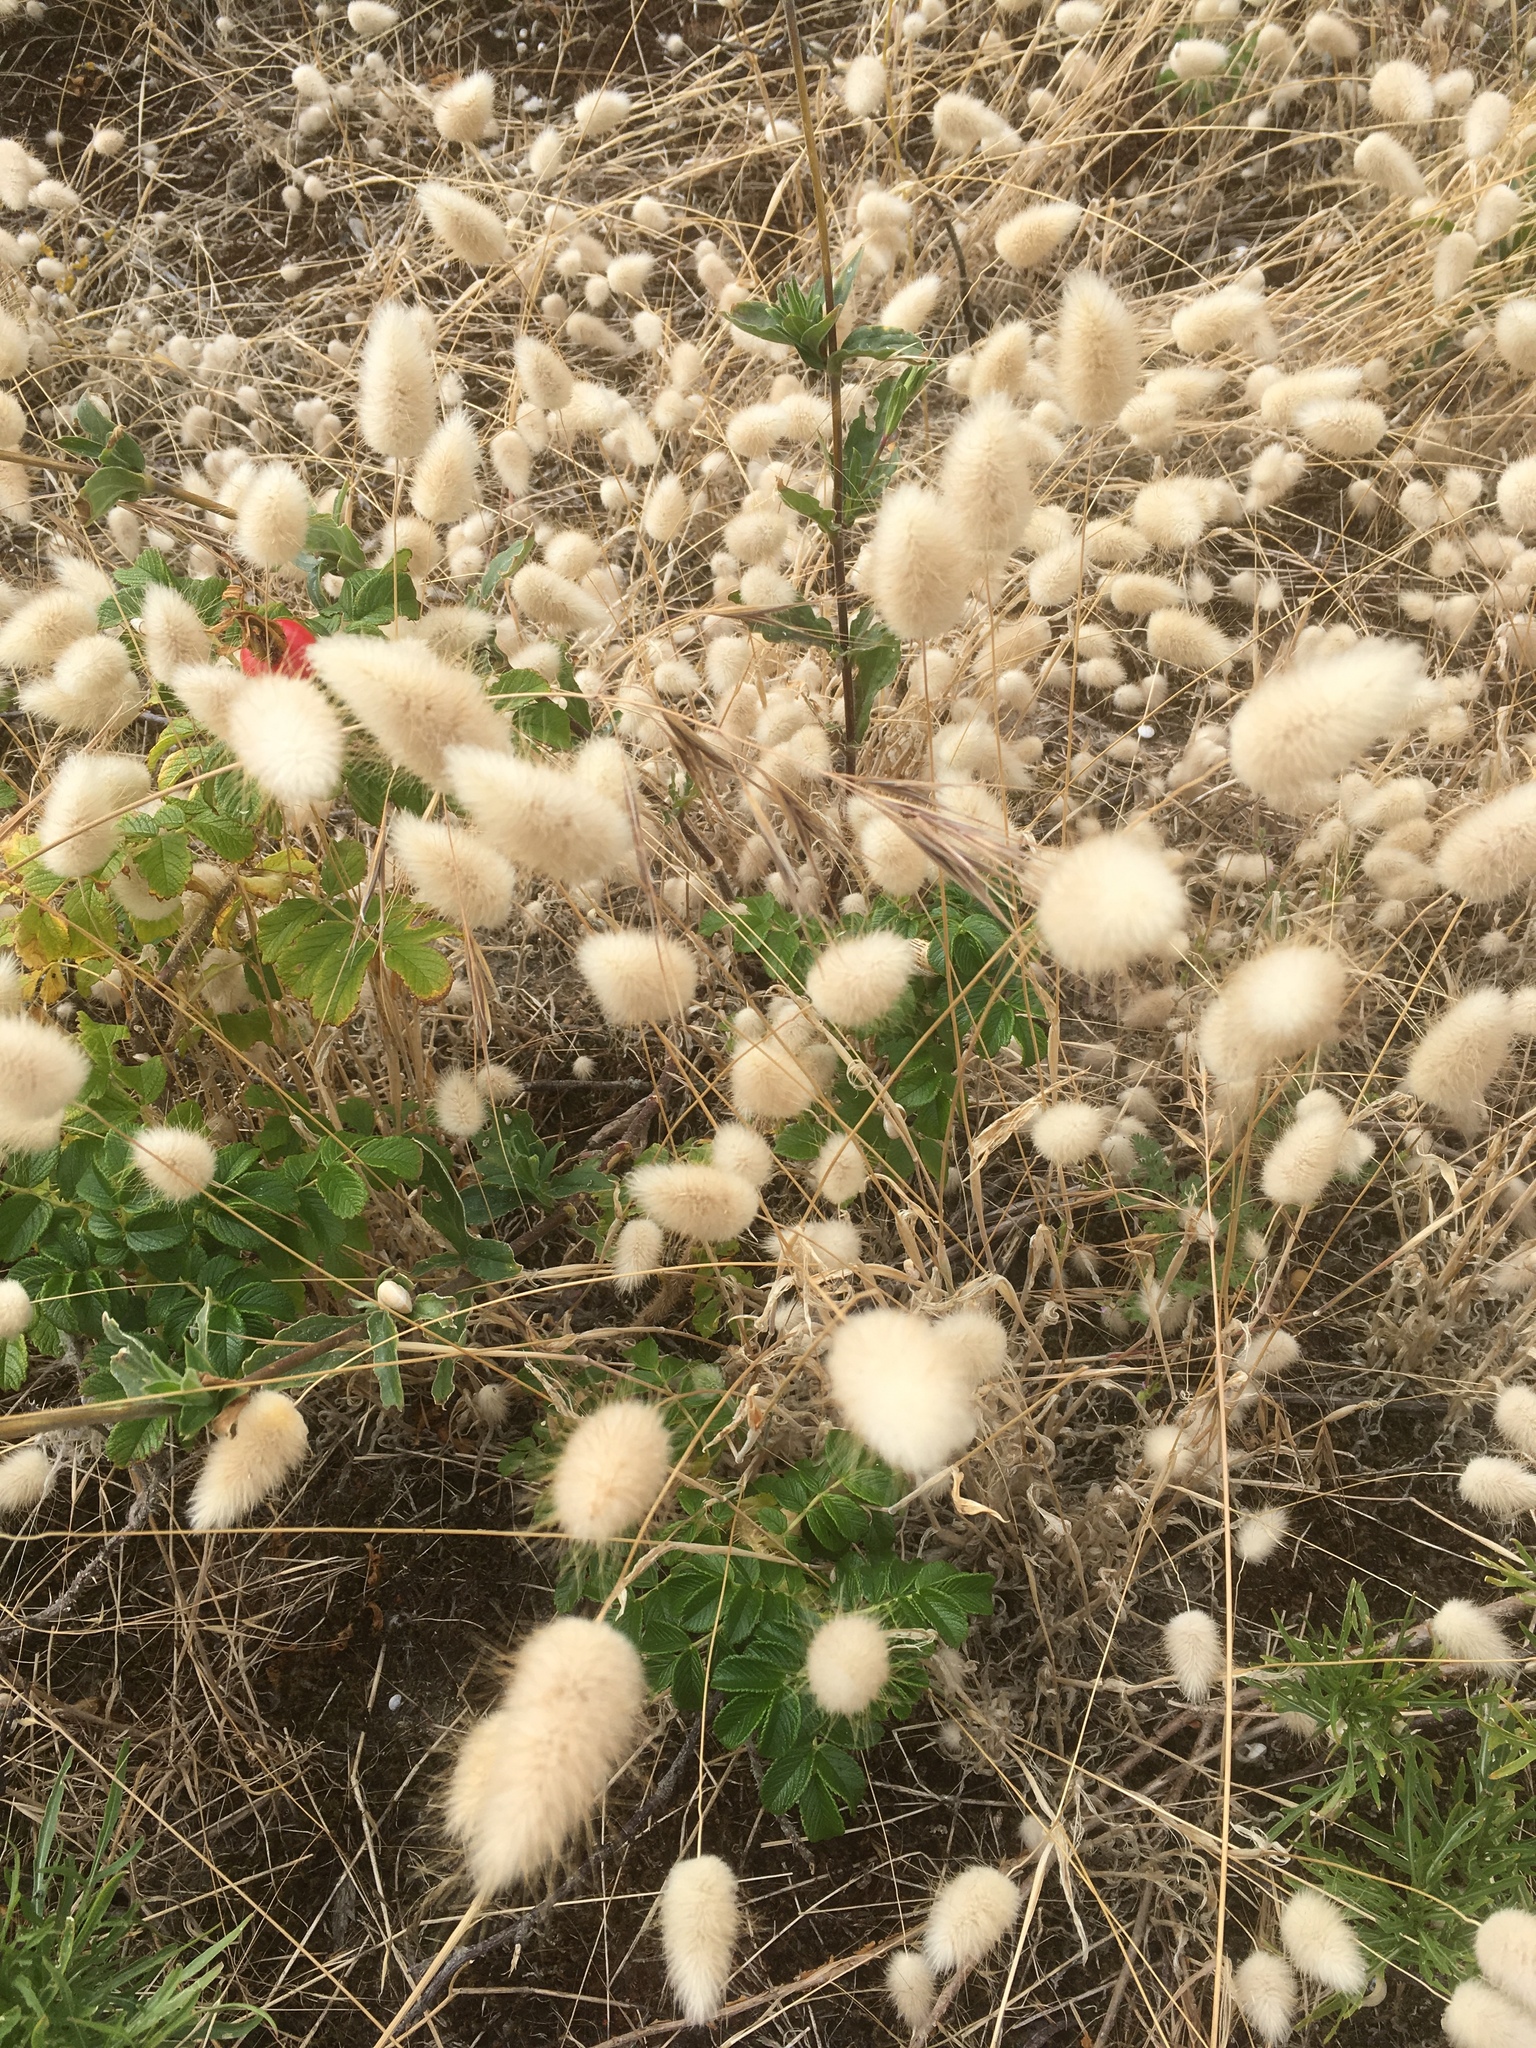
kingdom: Plantae
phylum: Tracheophyta
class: Liliopsida
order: Poales
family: Poaceae
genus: Lagurus
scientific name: Lagurus ovatus
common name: Hare's-tail
